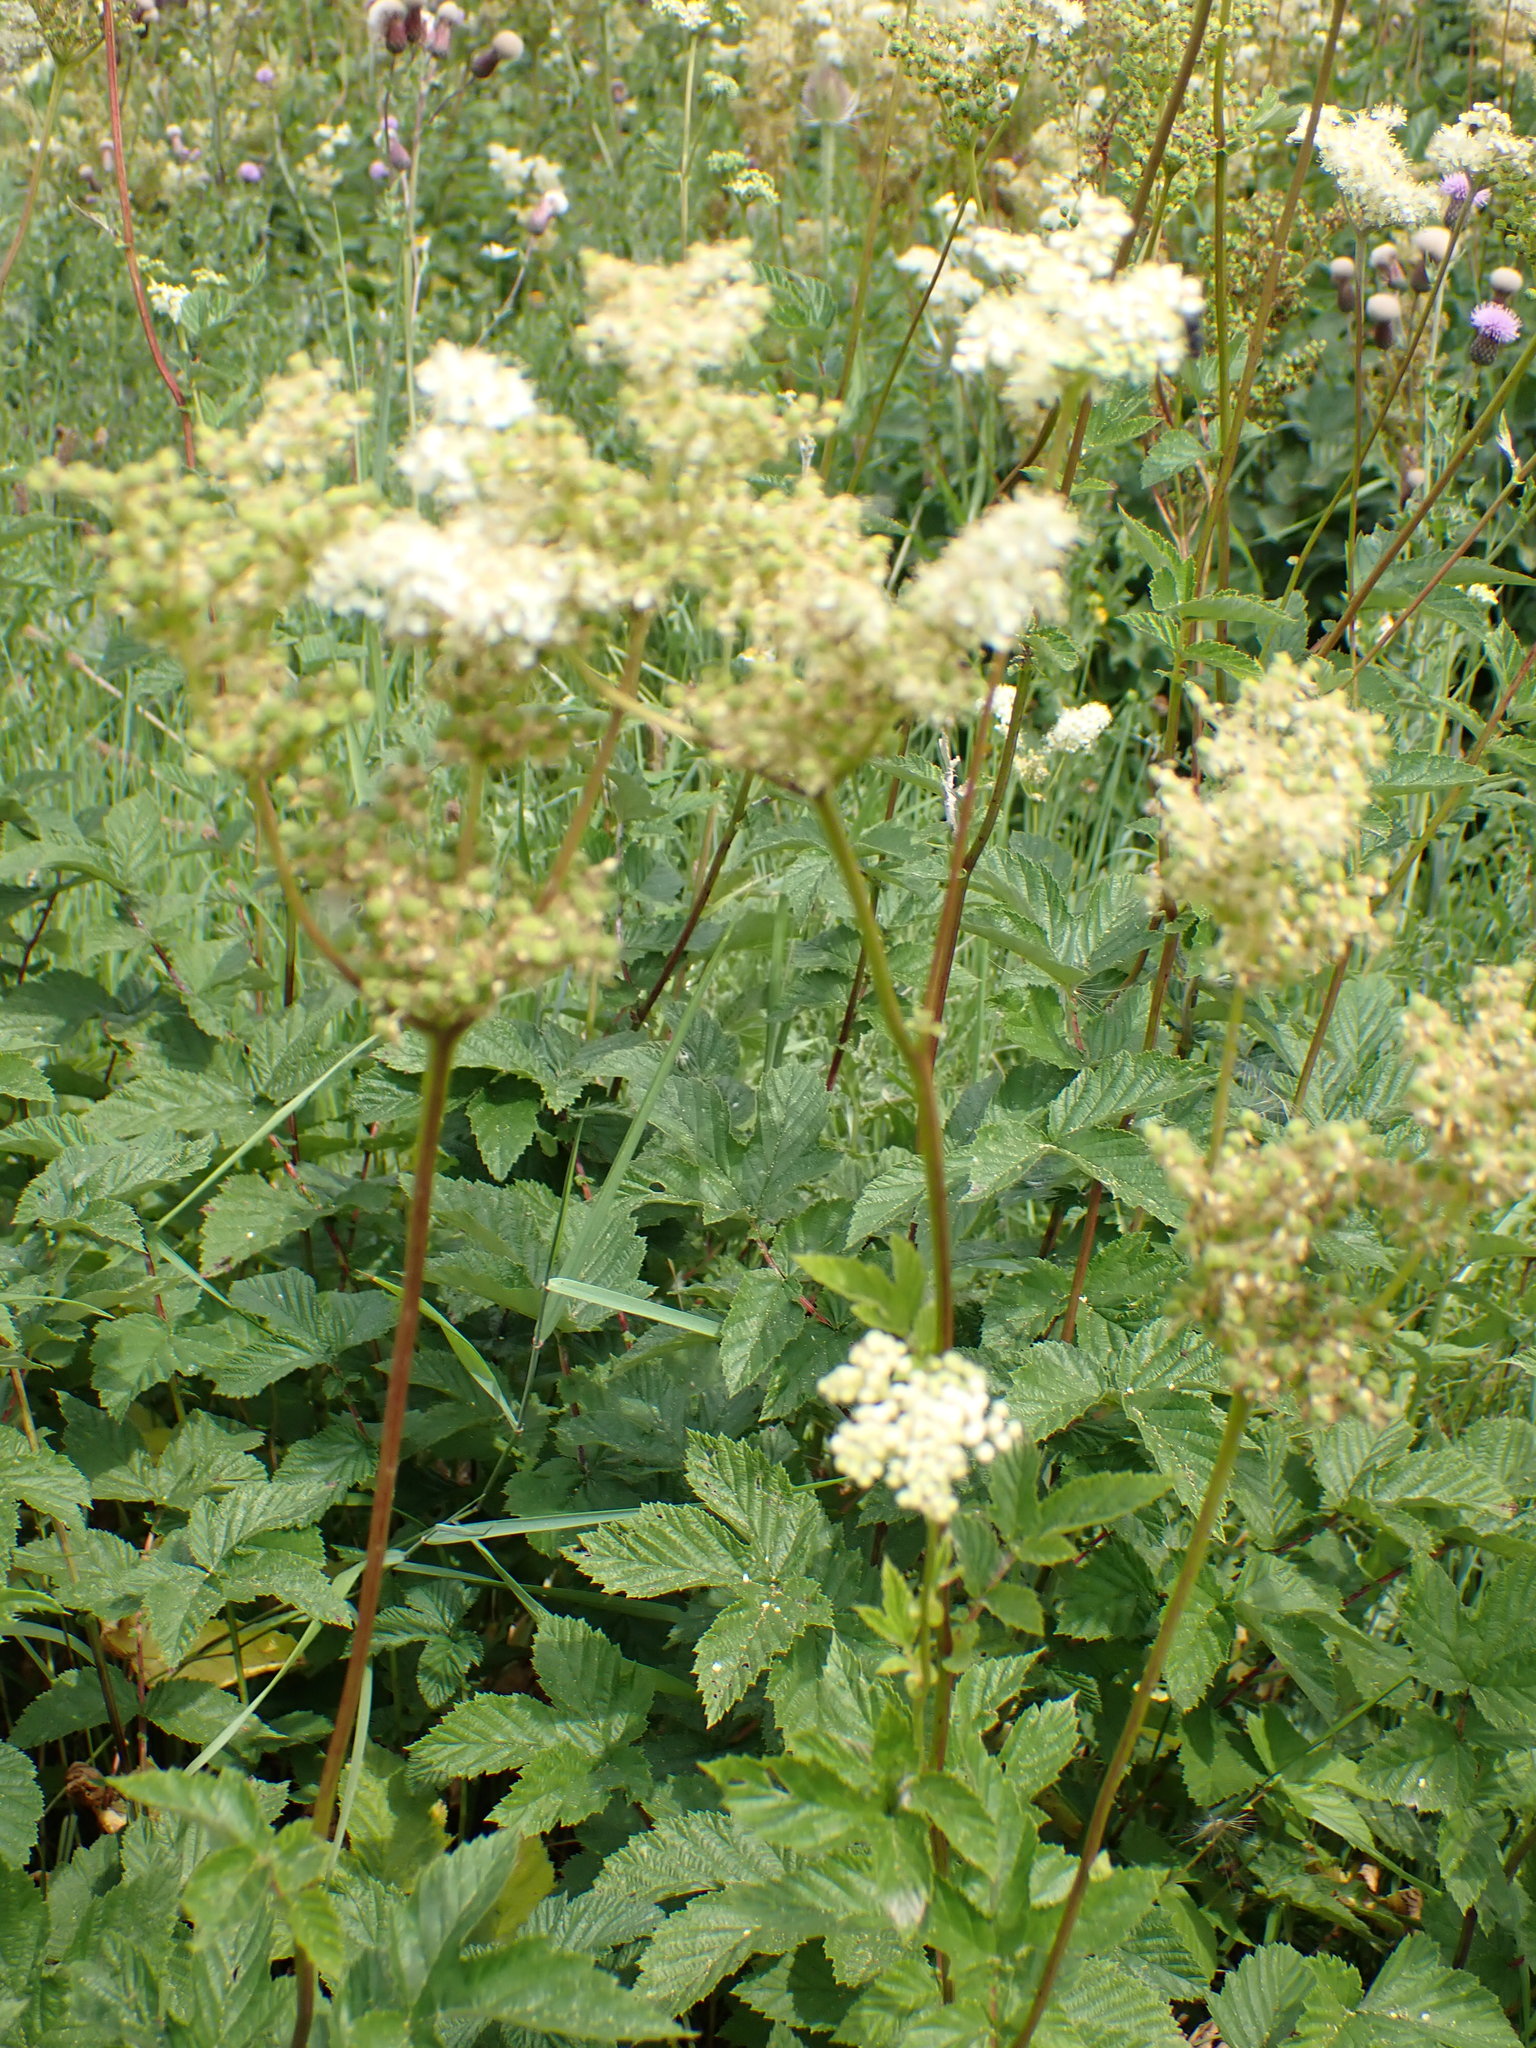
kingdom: Plantae
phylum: Tracheophyta
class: Magnoliopsida
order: Rosales
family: Rosaceae
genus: Filipendula
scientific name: Filipendula ulmaria
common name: Meadowsweet
